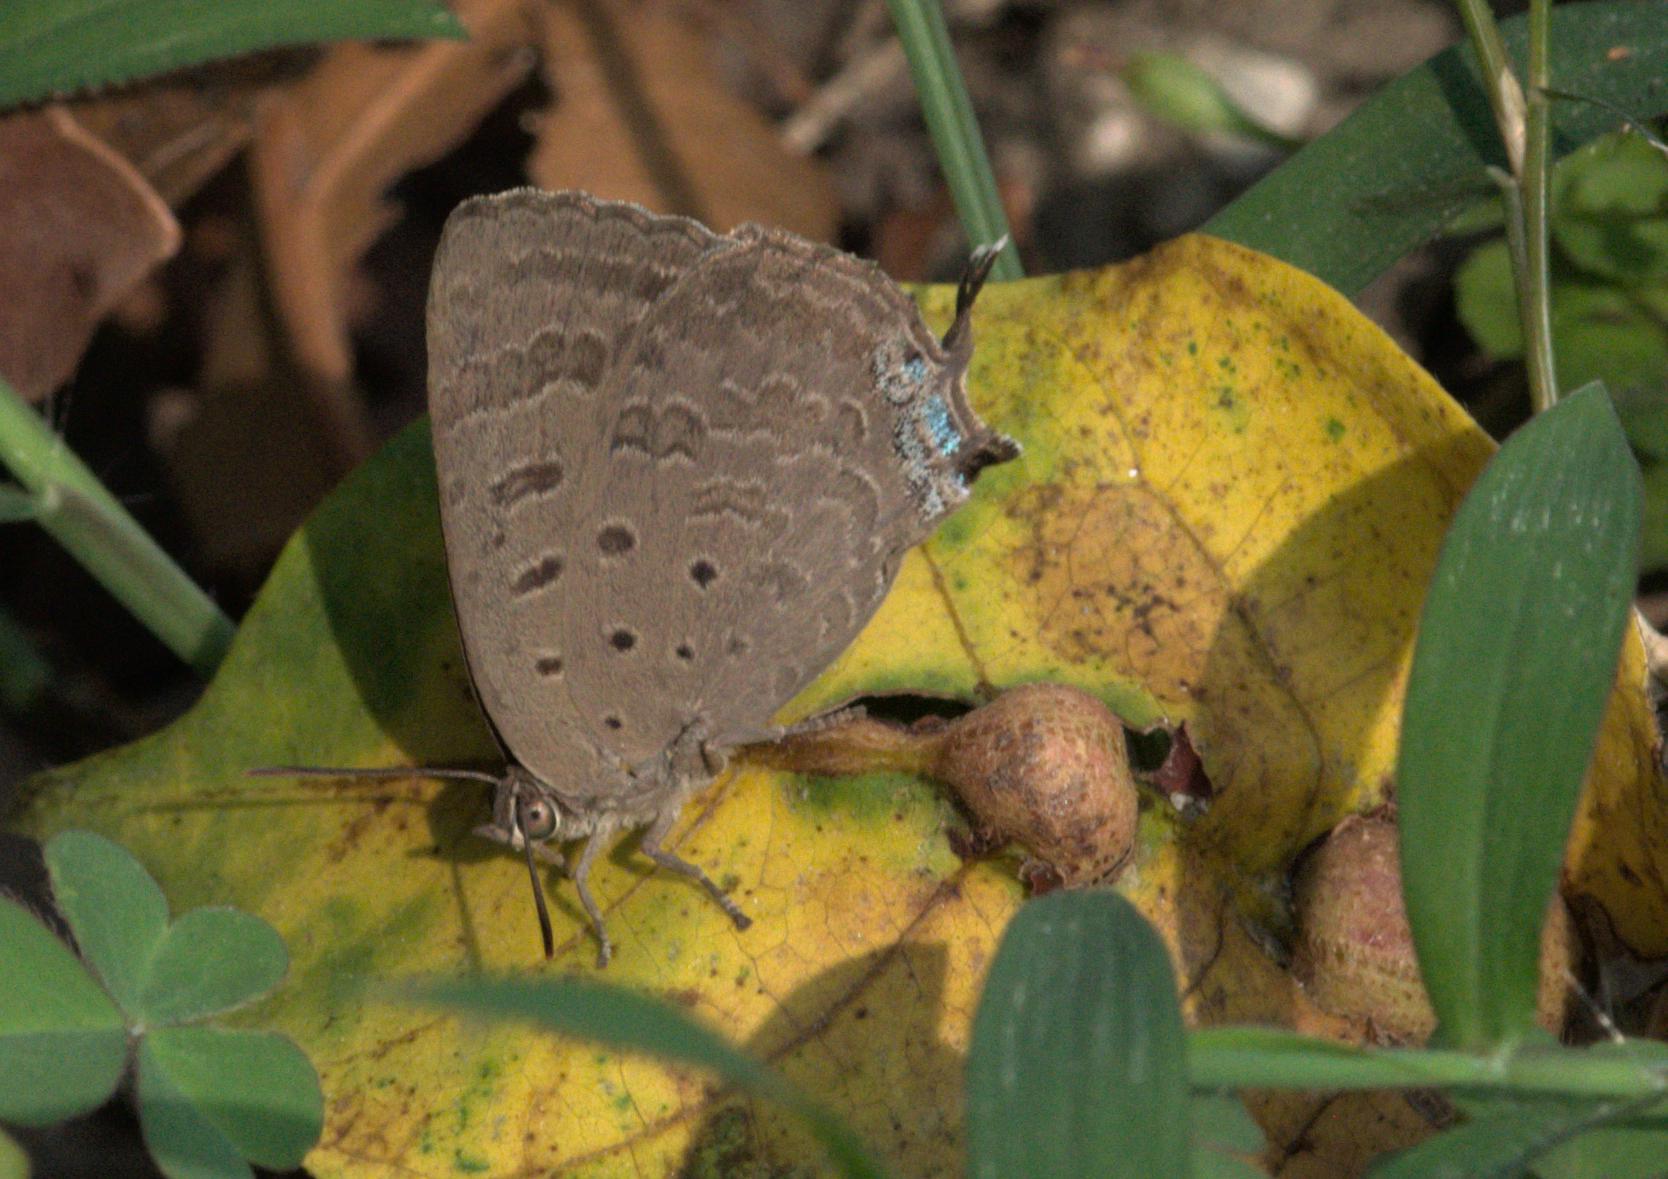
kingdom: Animalia
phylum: Arthropoda
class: Insecta
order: Lepidoptera
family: Lycaenidae
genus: Arhopala
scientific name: Arhopala atrax
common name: Indian oakblue
